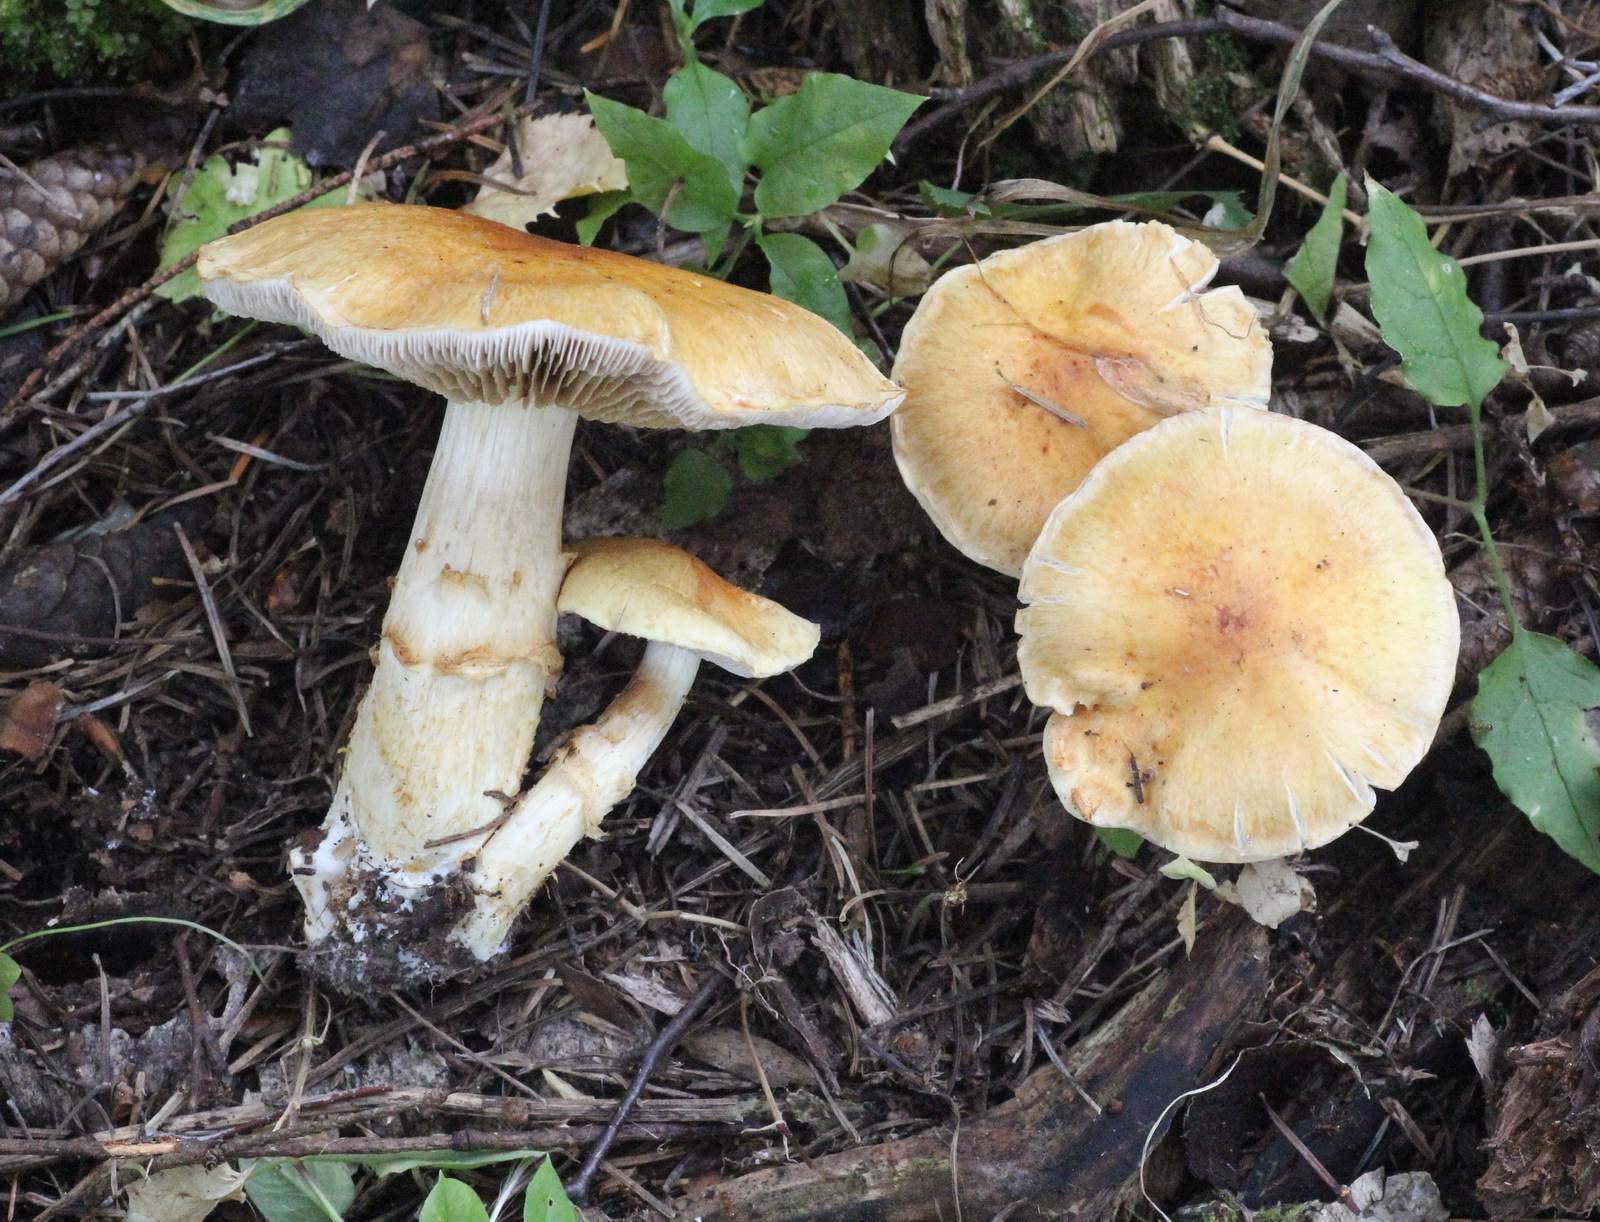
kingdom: Fungi
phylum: Basidiomycota
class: Agaricomycetes
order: Agaricales
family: Cortinariaceae
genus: Phlegmacium
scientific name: Phlegmacium triumphans
